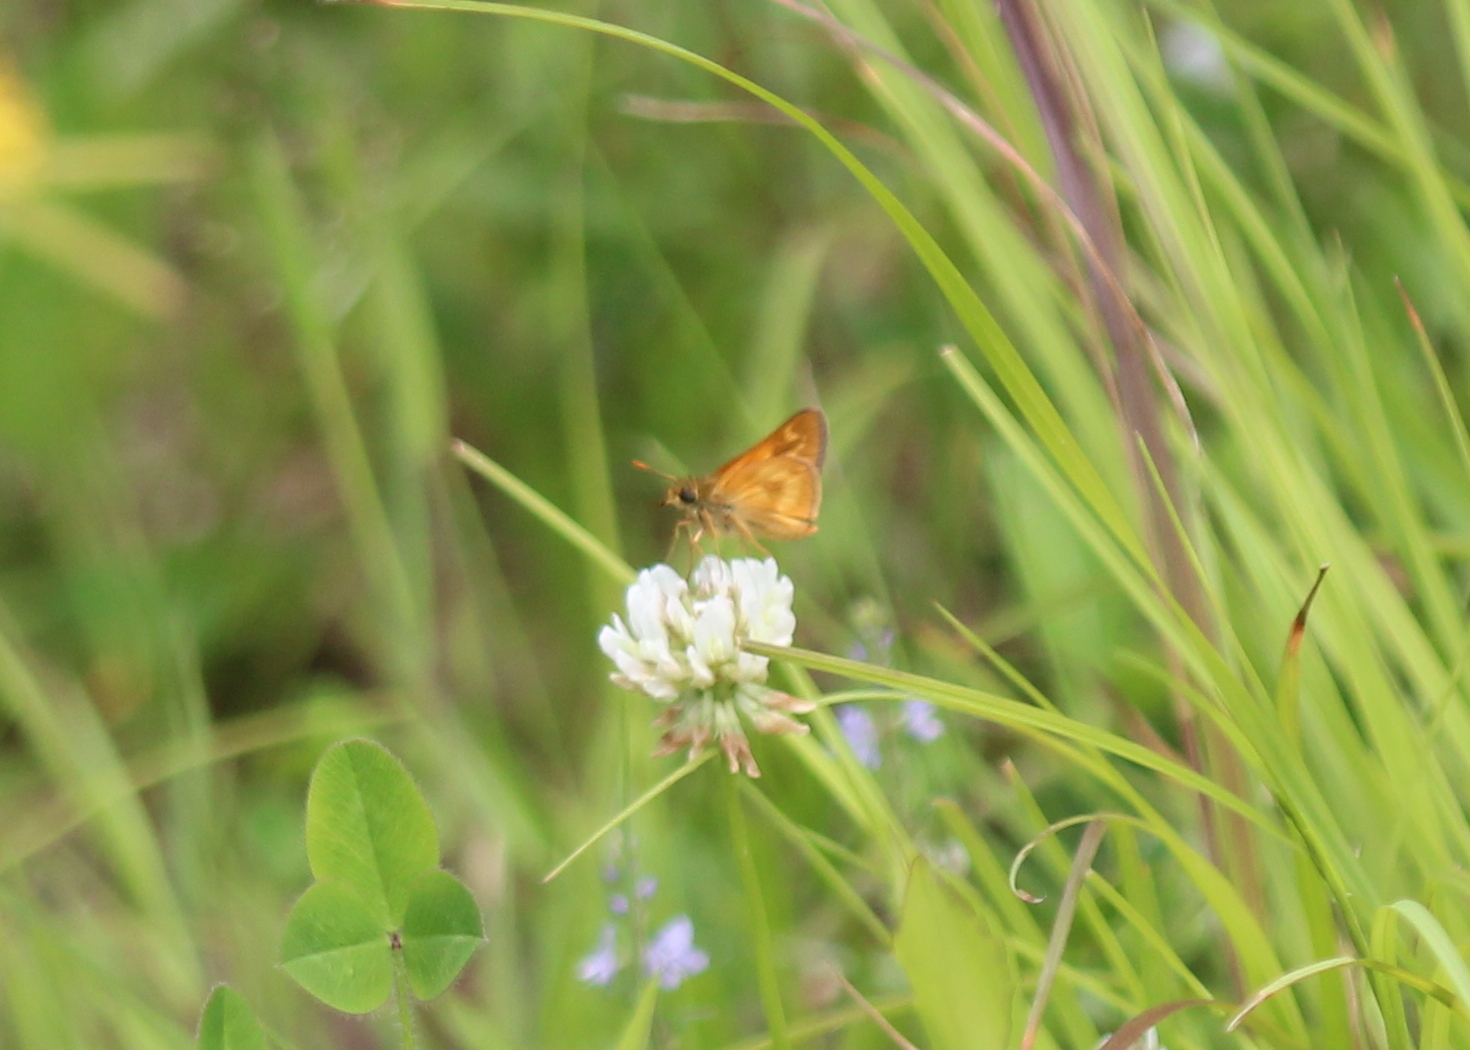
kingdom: Animalia
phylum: Arthropoda
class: Insecta
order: Lepidoptera
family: Hesperiidae
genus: Polites
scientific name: Polites mystic
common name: Long dash
